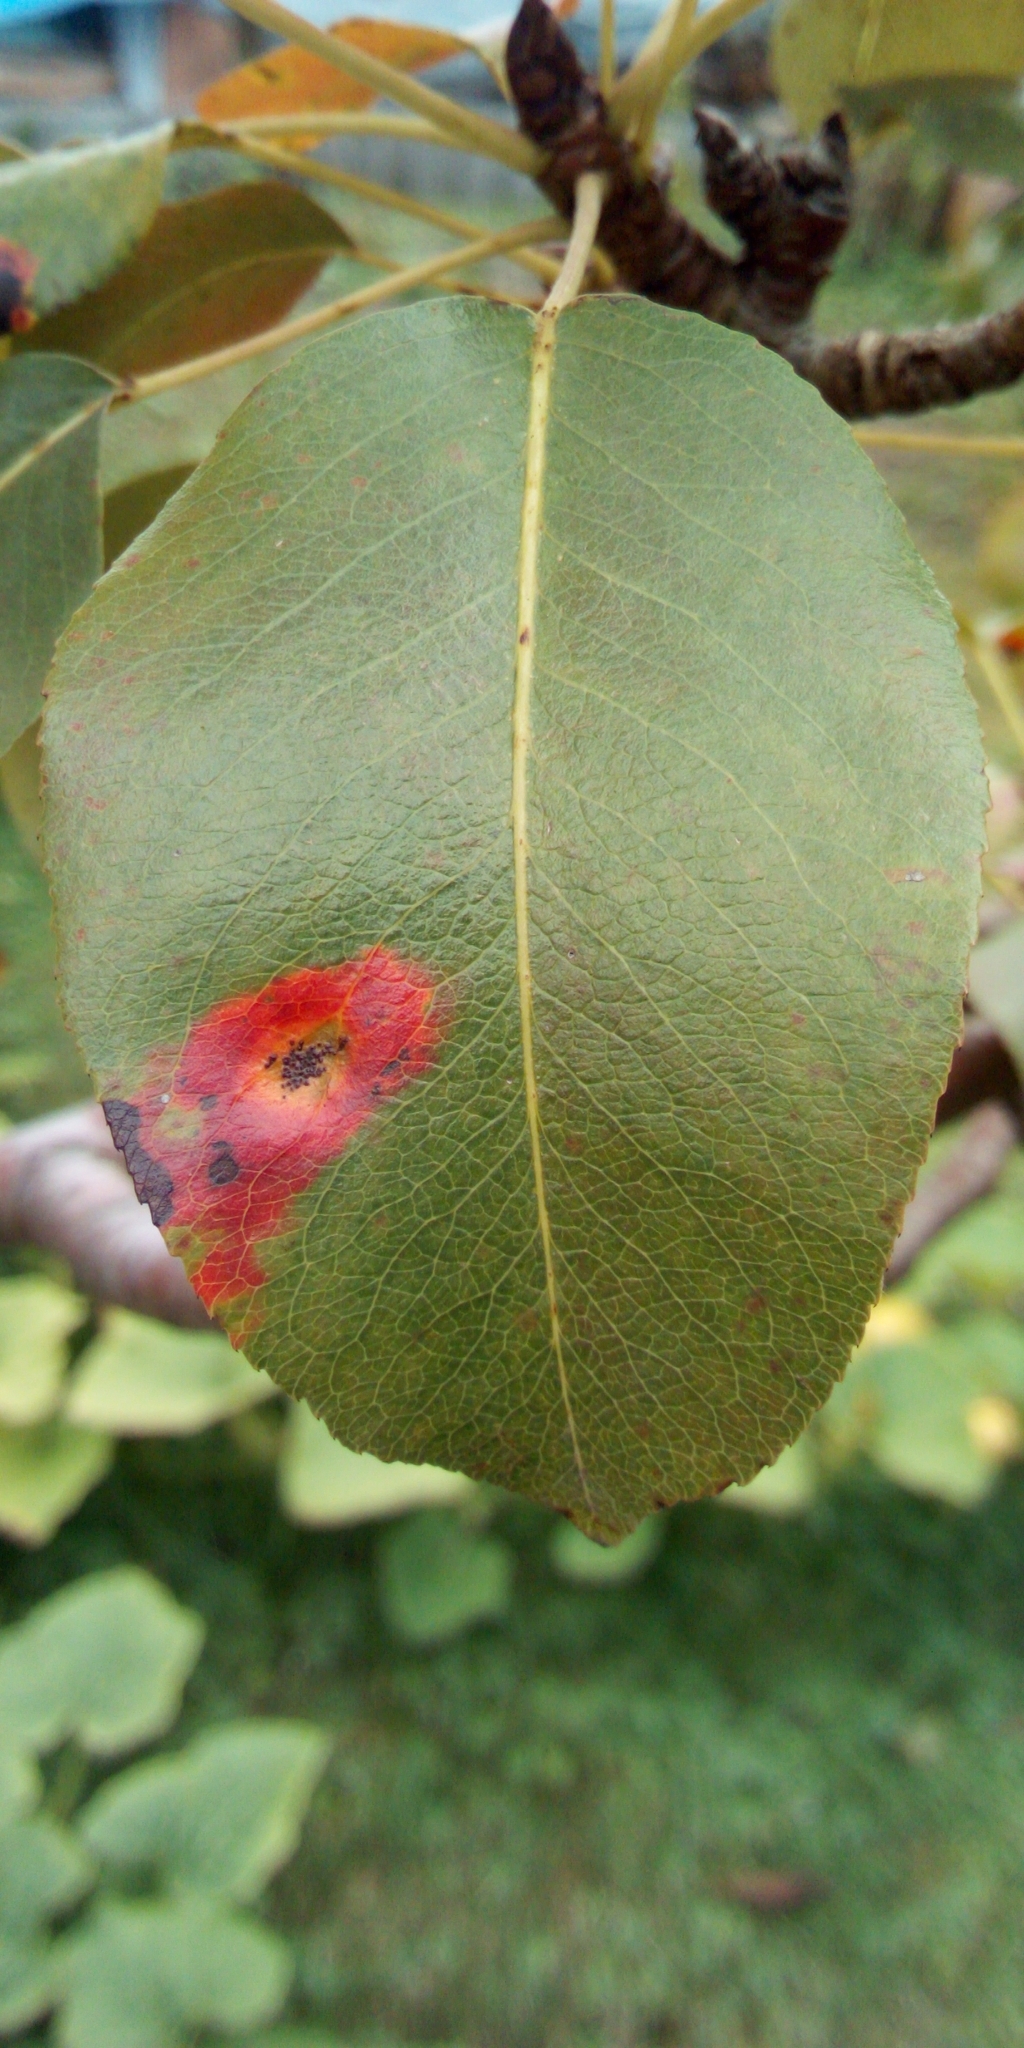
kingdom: Fungi
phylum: Basidiomycota
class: Pucciniomycetes
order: Pucciniales
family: Gymnosporangiaceae
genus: Gymnosporangium
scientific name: Gymnosporangium sabinae
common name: Pear trellis rust fungus
